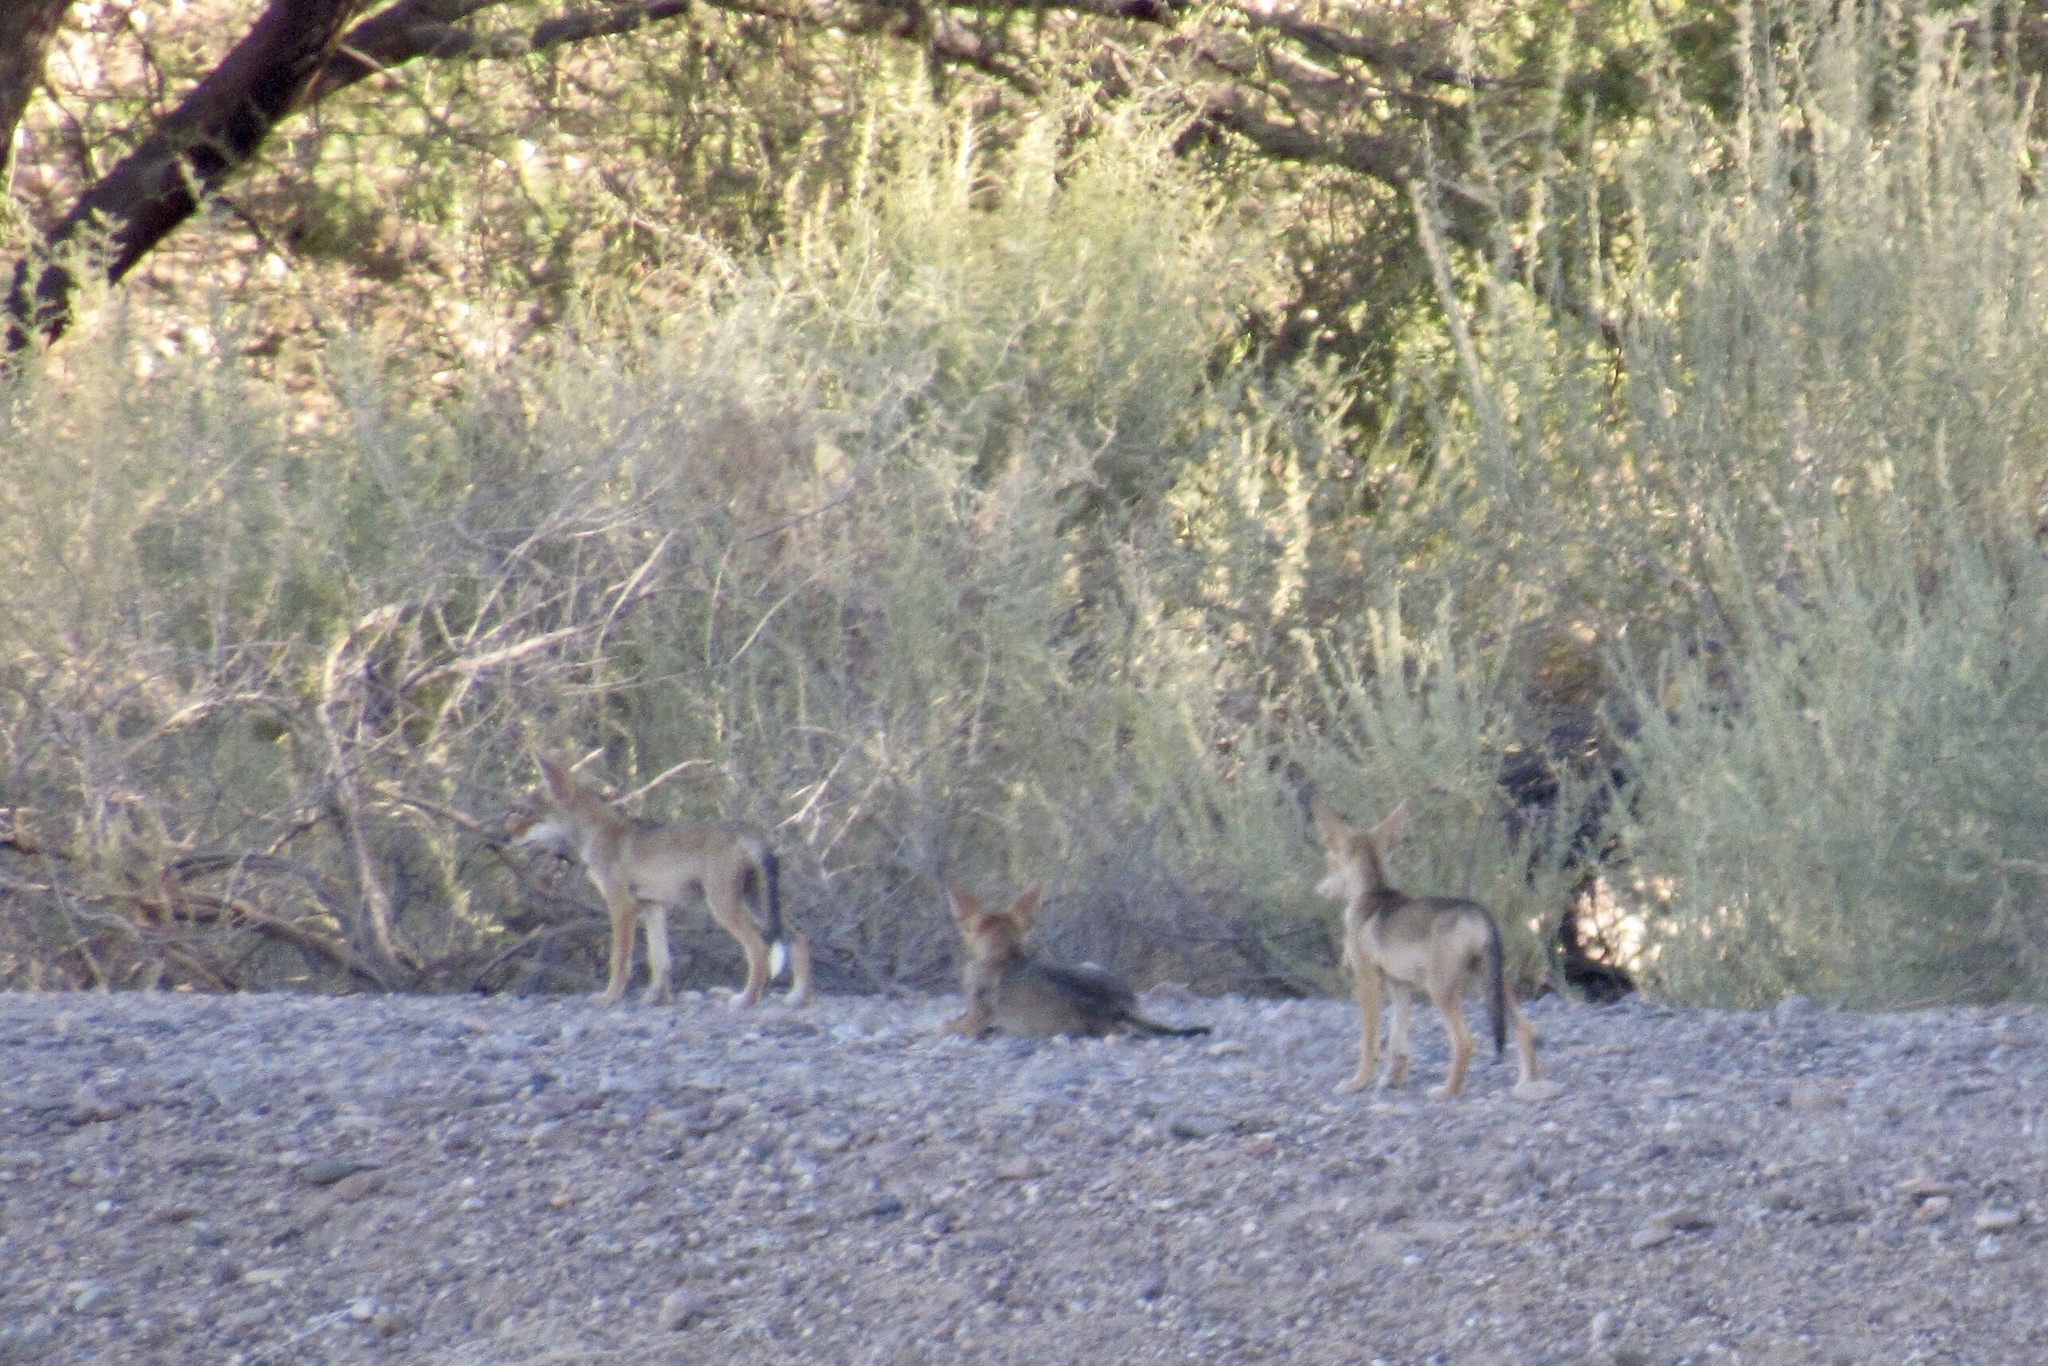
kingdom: Animalia
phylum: Chordata
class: Mammalia
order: Carnivora
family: Canidae
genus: Canis
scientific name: Canis latrans
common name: Coyote
